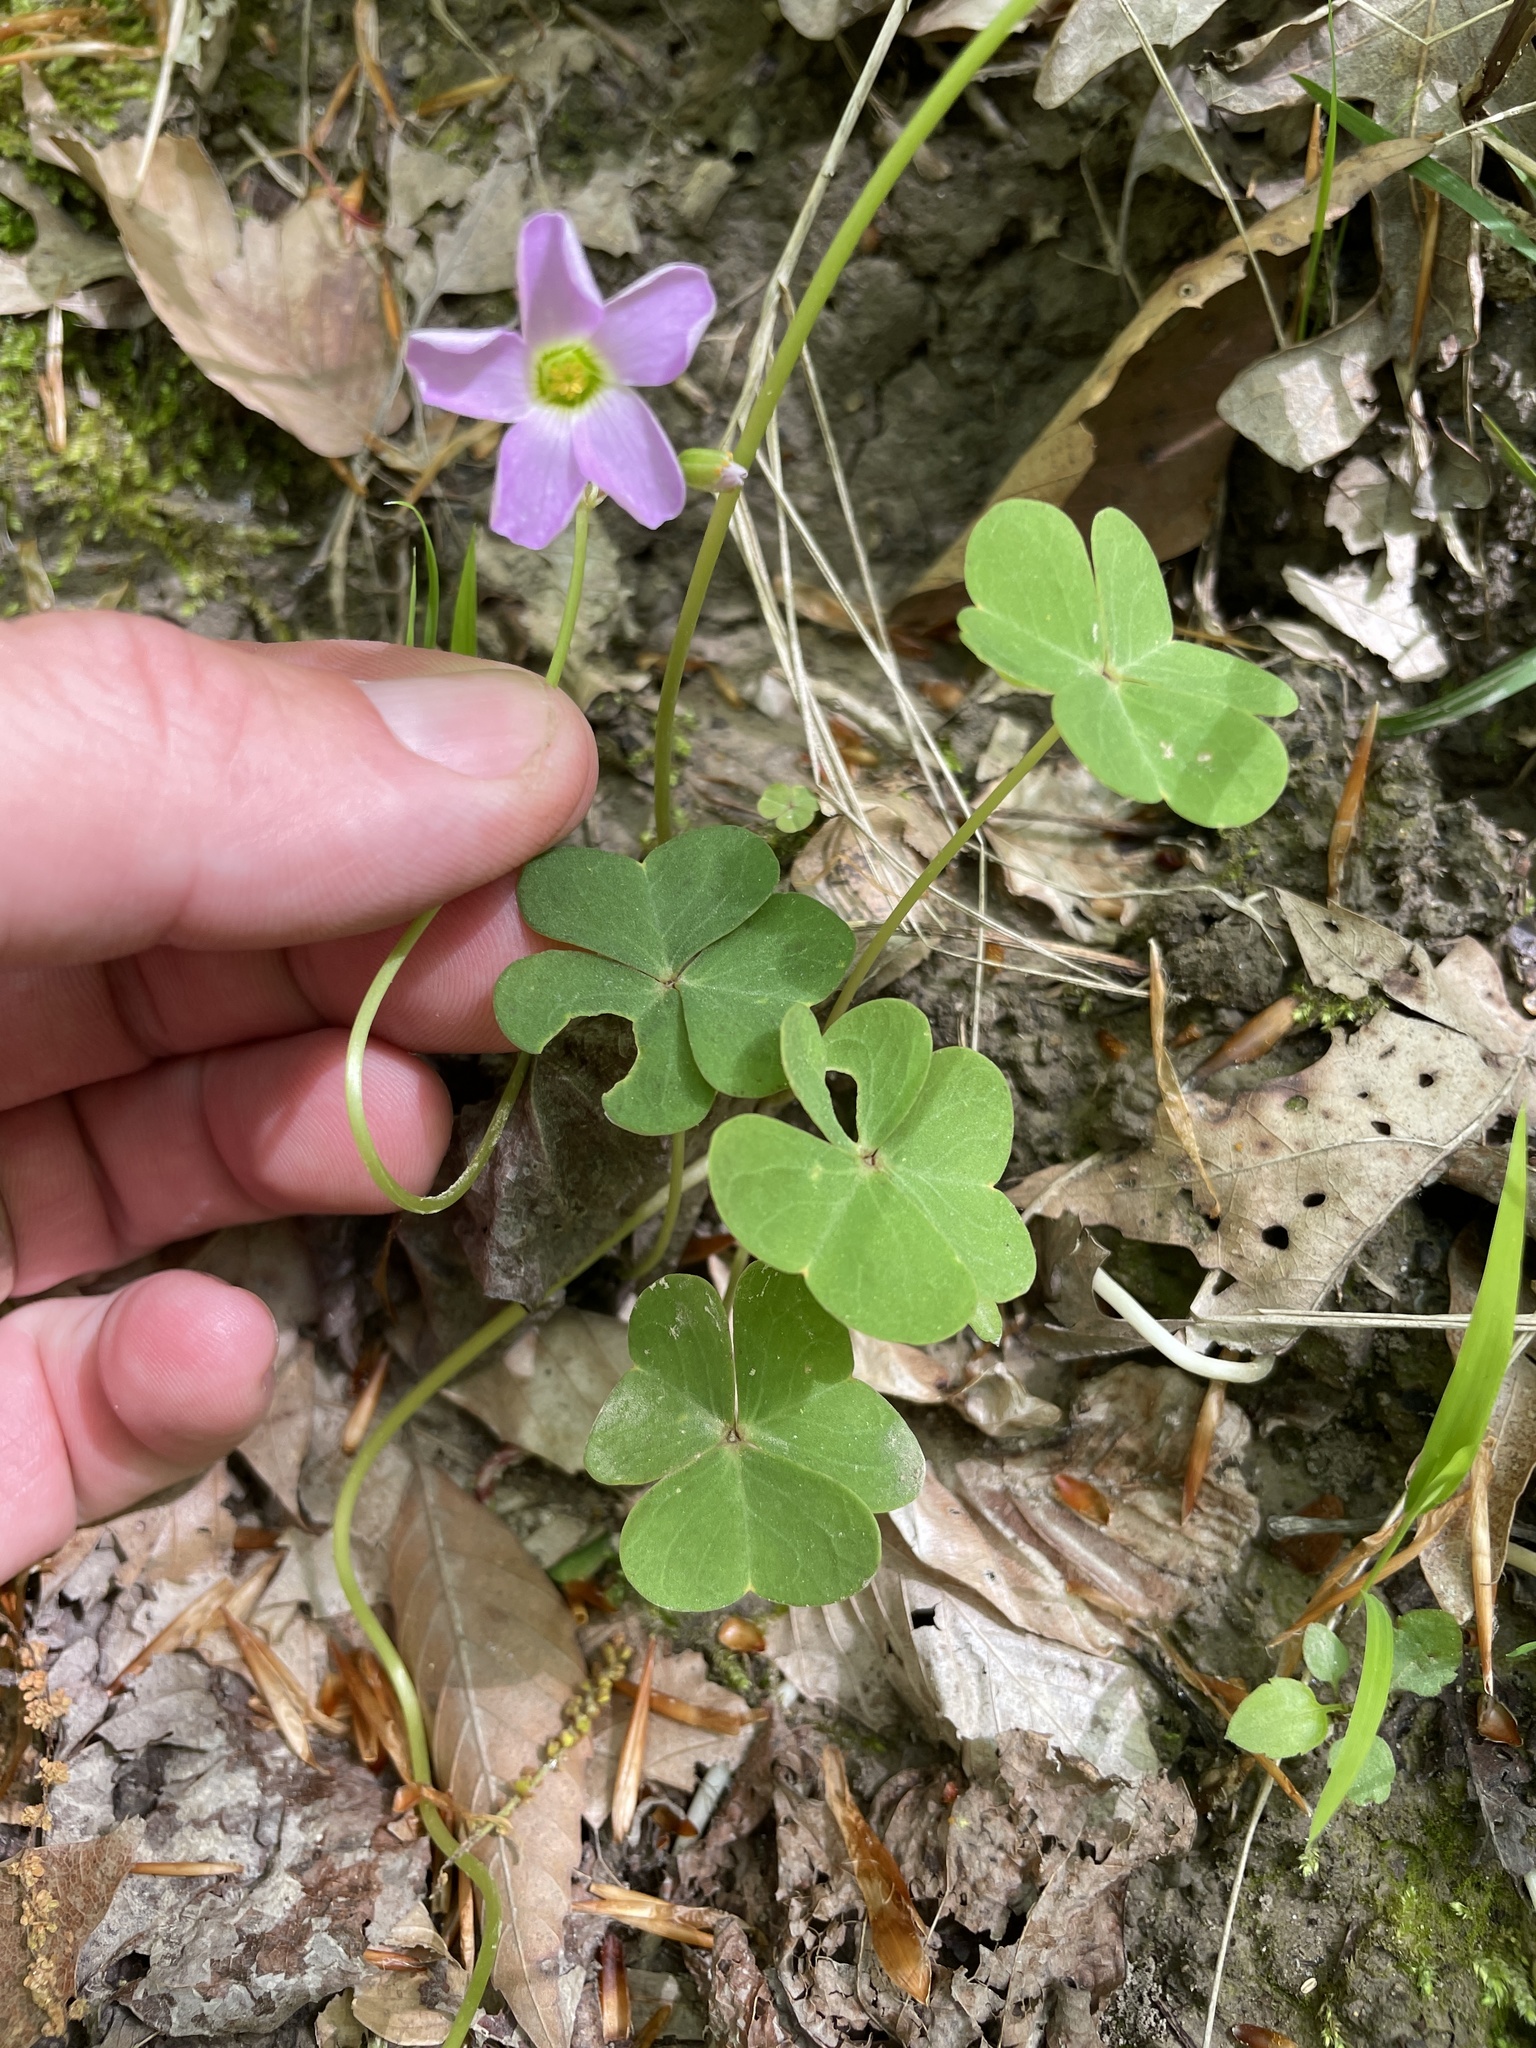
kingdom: Plantae
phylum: Tracheophyta
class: Magnoliopsida
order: Oxalidales
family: Oxalidaceae
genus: Oxalis
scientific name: Oxalis violacea
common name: Violet wood-sorrel
